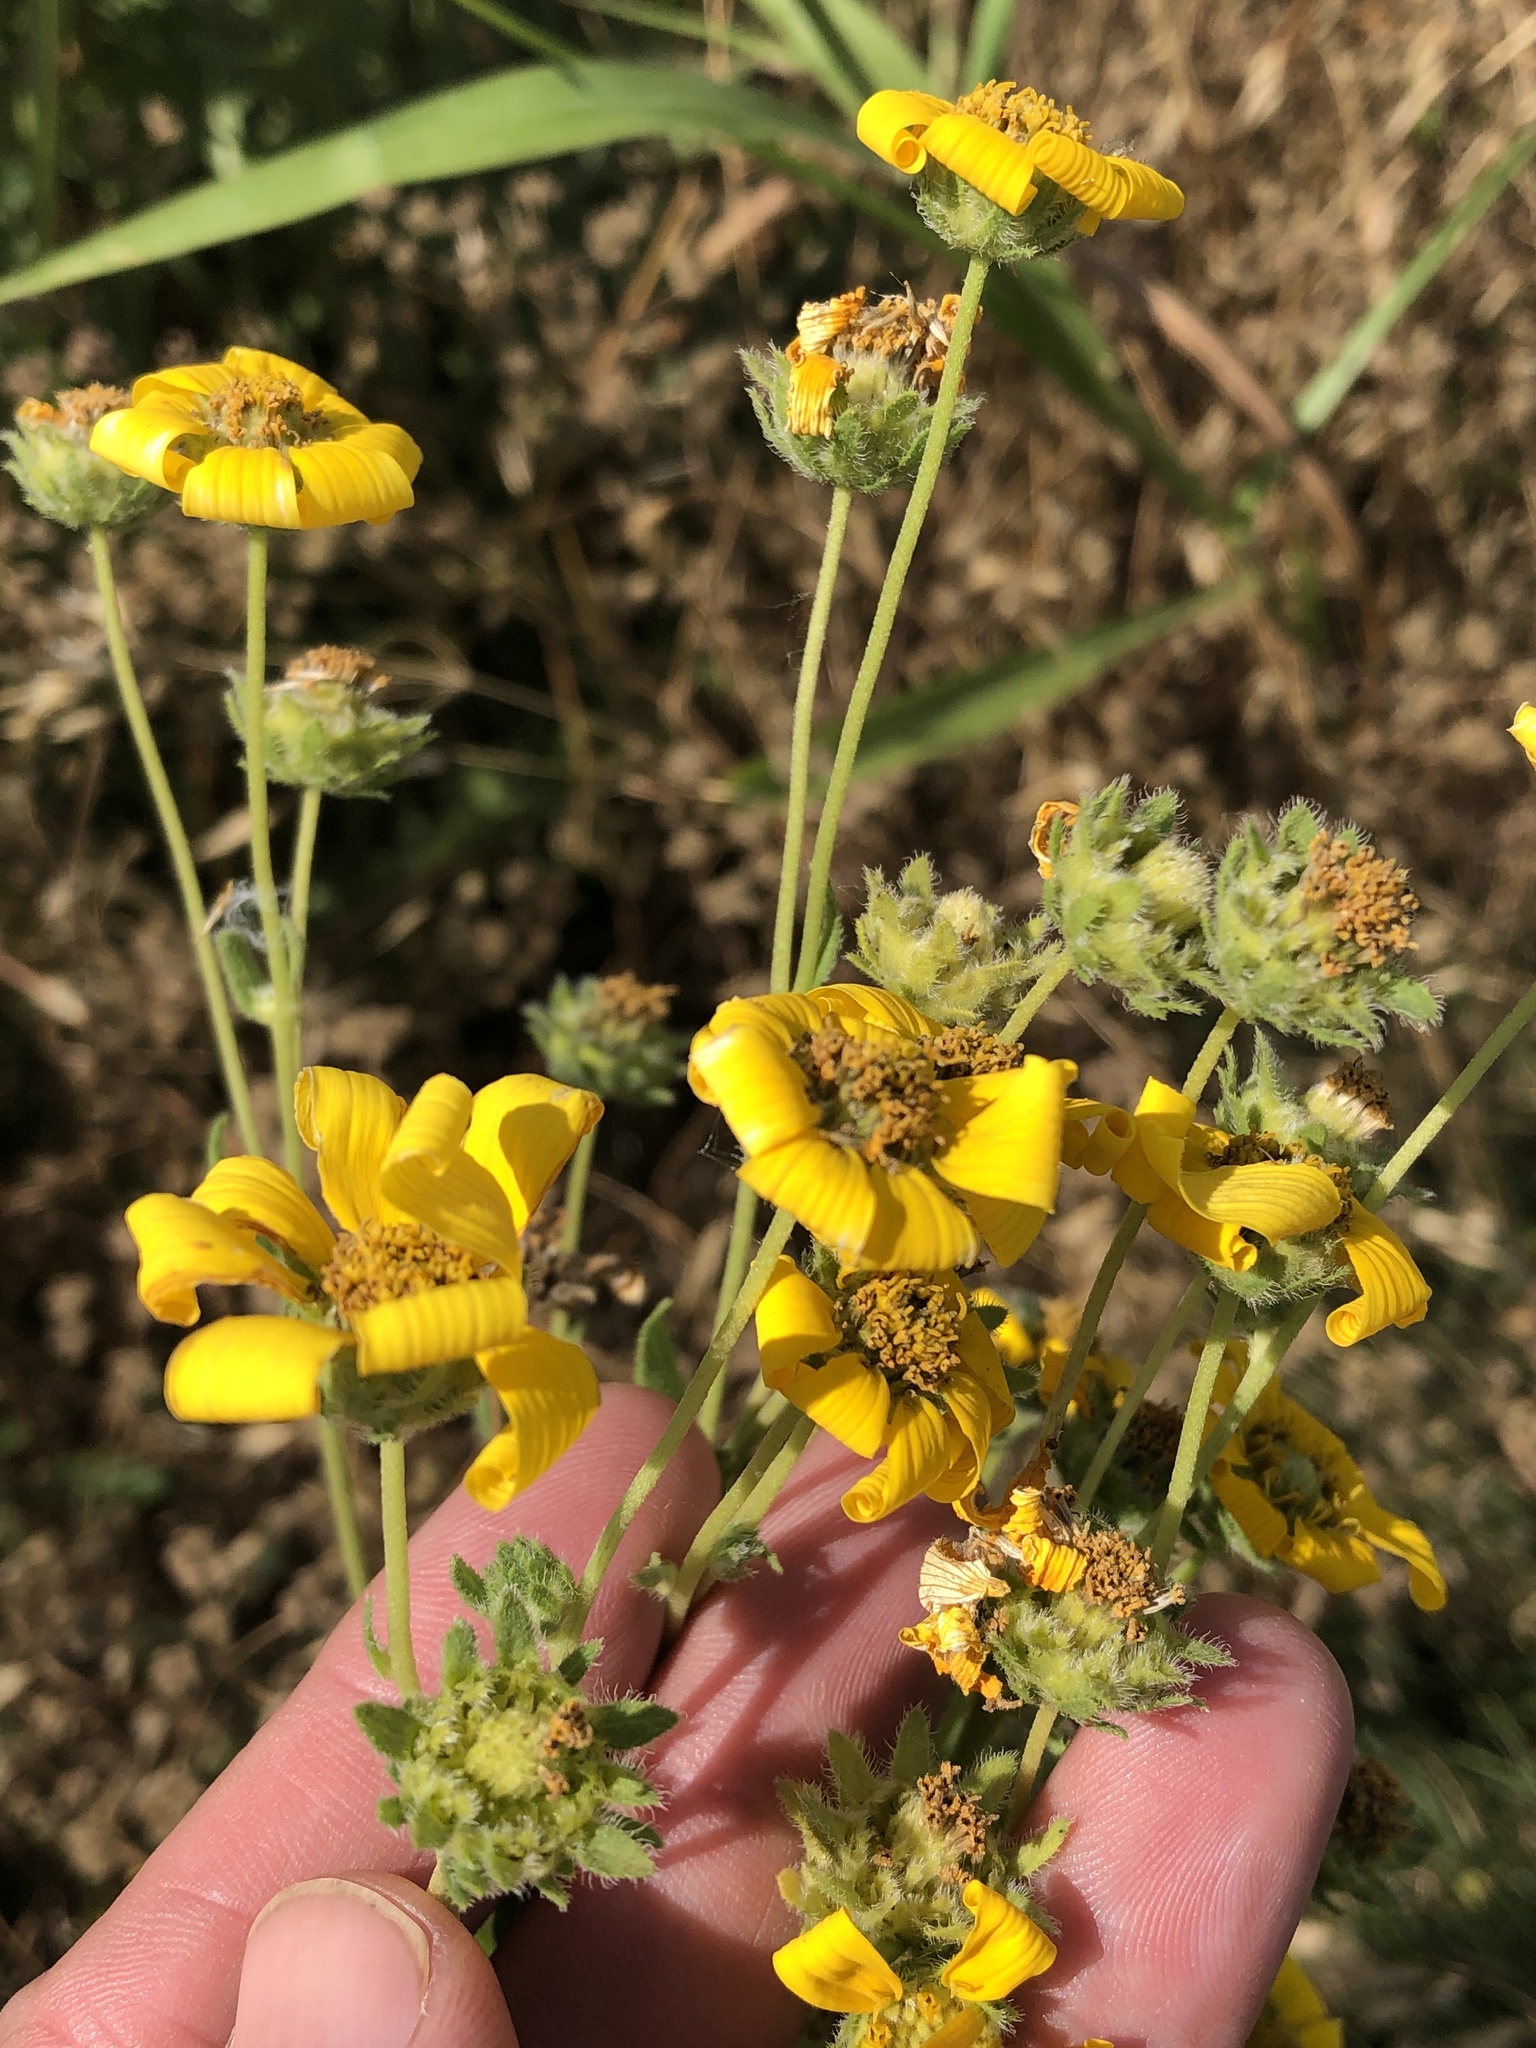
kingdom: Plantae
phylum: Tracheophyta
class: Magnoliopsida
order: Asterales
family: Asteraceae
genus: Engelmannia
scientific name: Engelmannia peristenia
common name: Engelmann's daisy
